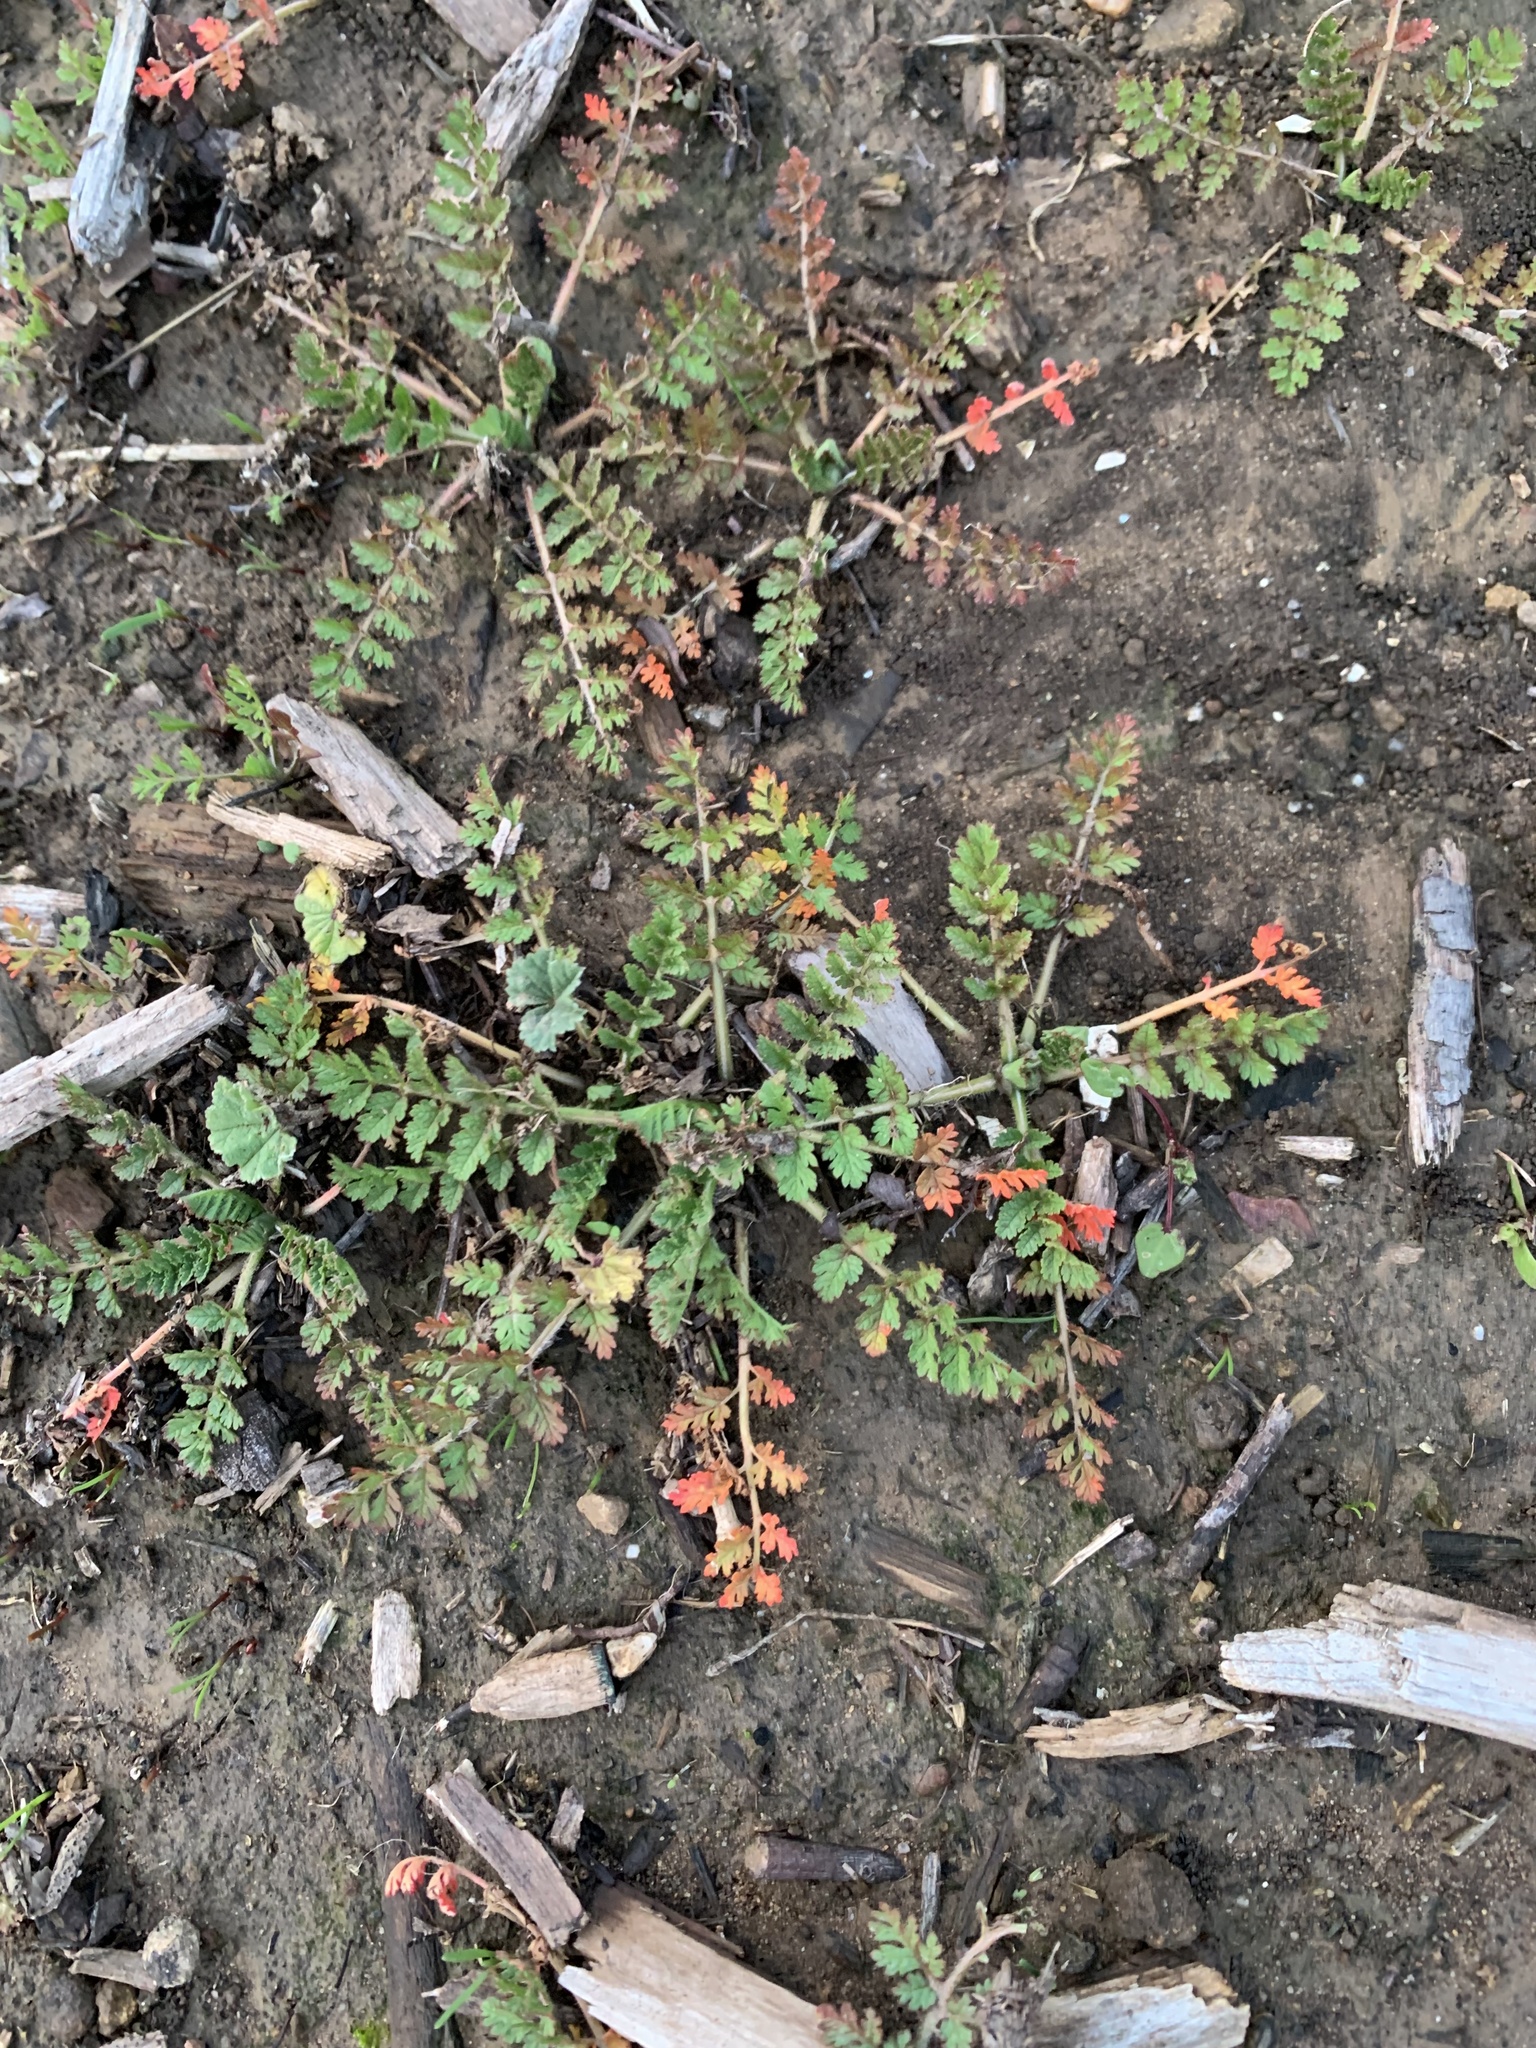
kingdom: Plantae
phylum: Tracheophyta
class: Magnoliopsida
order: Geraniales
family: Geraniaceae
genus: Erodium
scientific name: Erodium cicutarium
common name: Common stork's-bill
